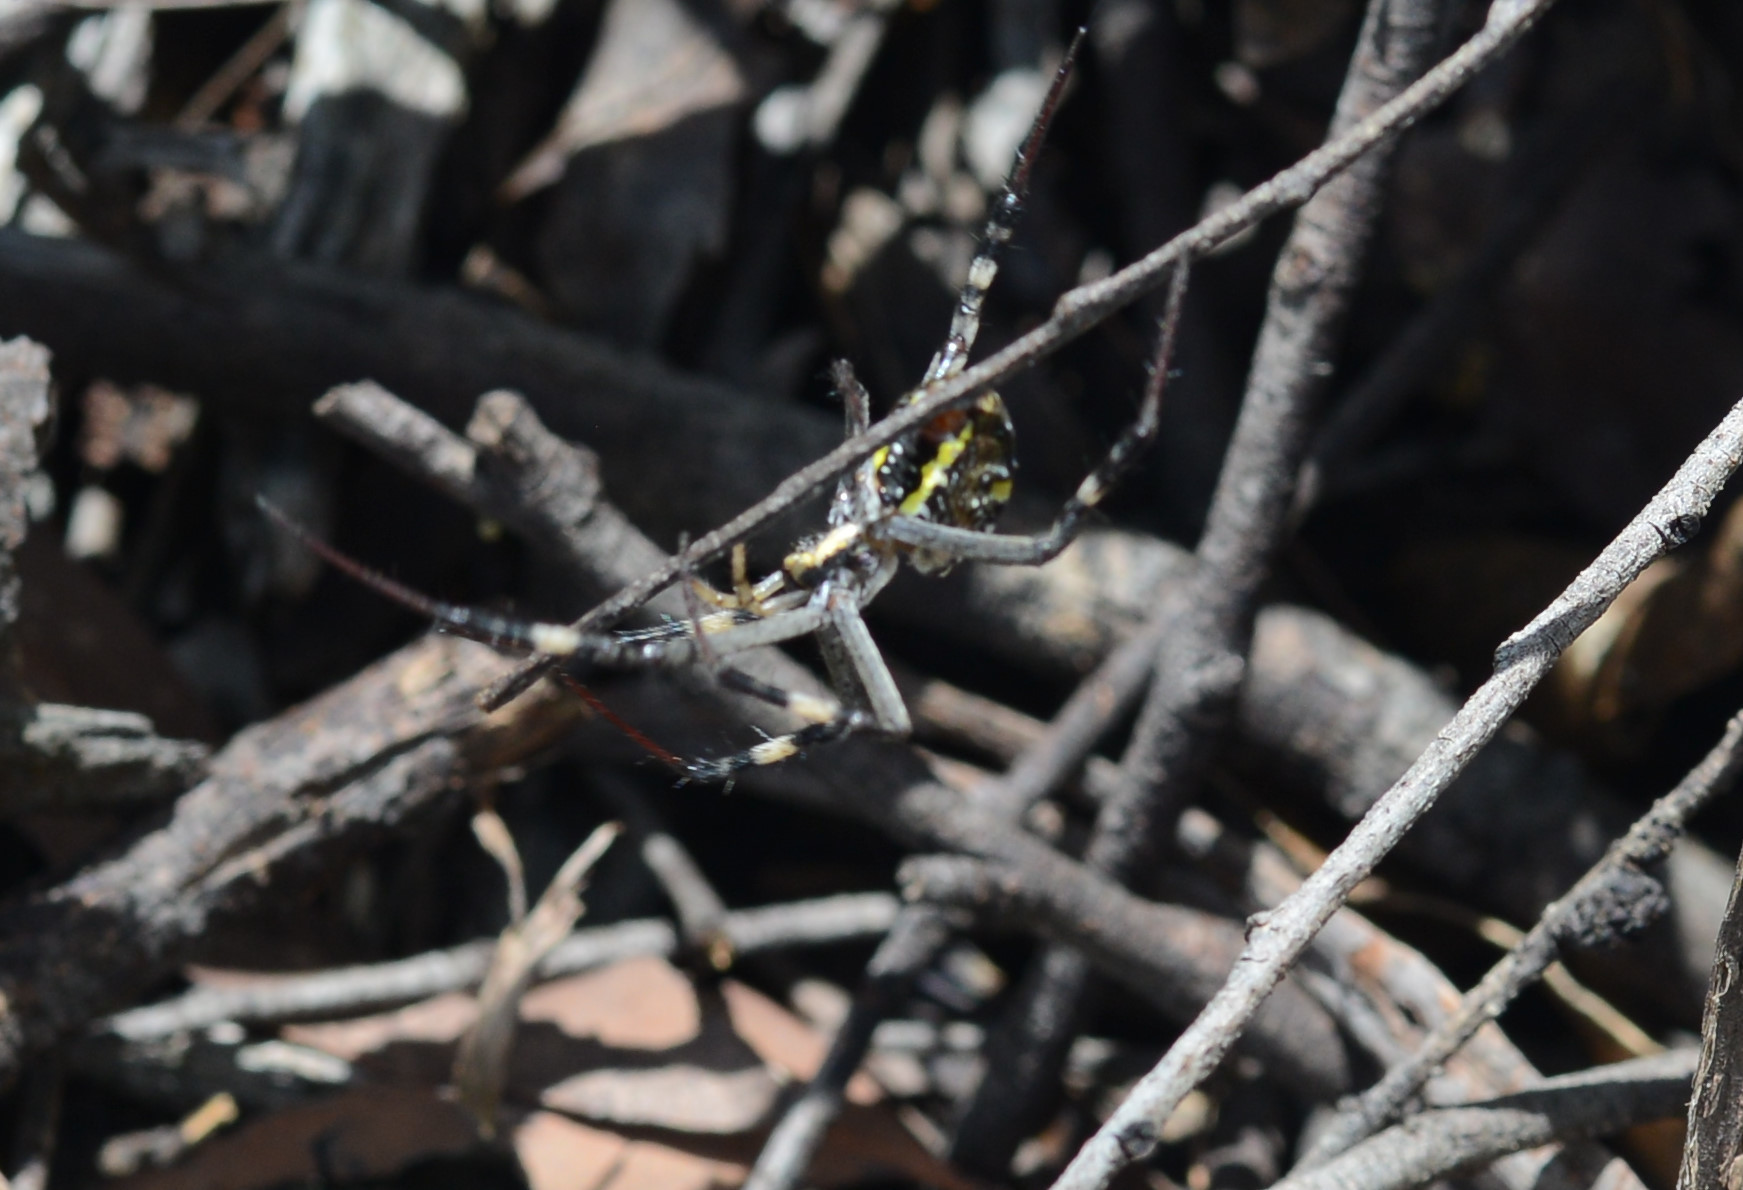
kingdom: Animalia
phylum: Arthropoda
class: Arachnida
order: Araneae
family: Araneidae
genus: Argiope
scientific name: Argiope keyserlingi
